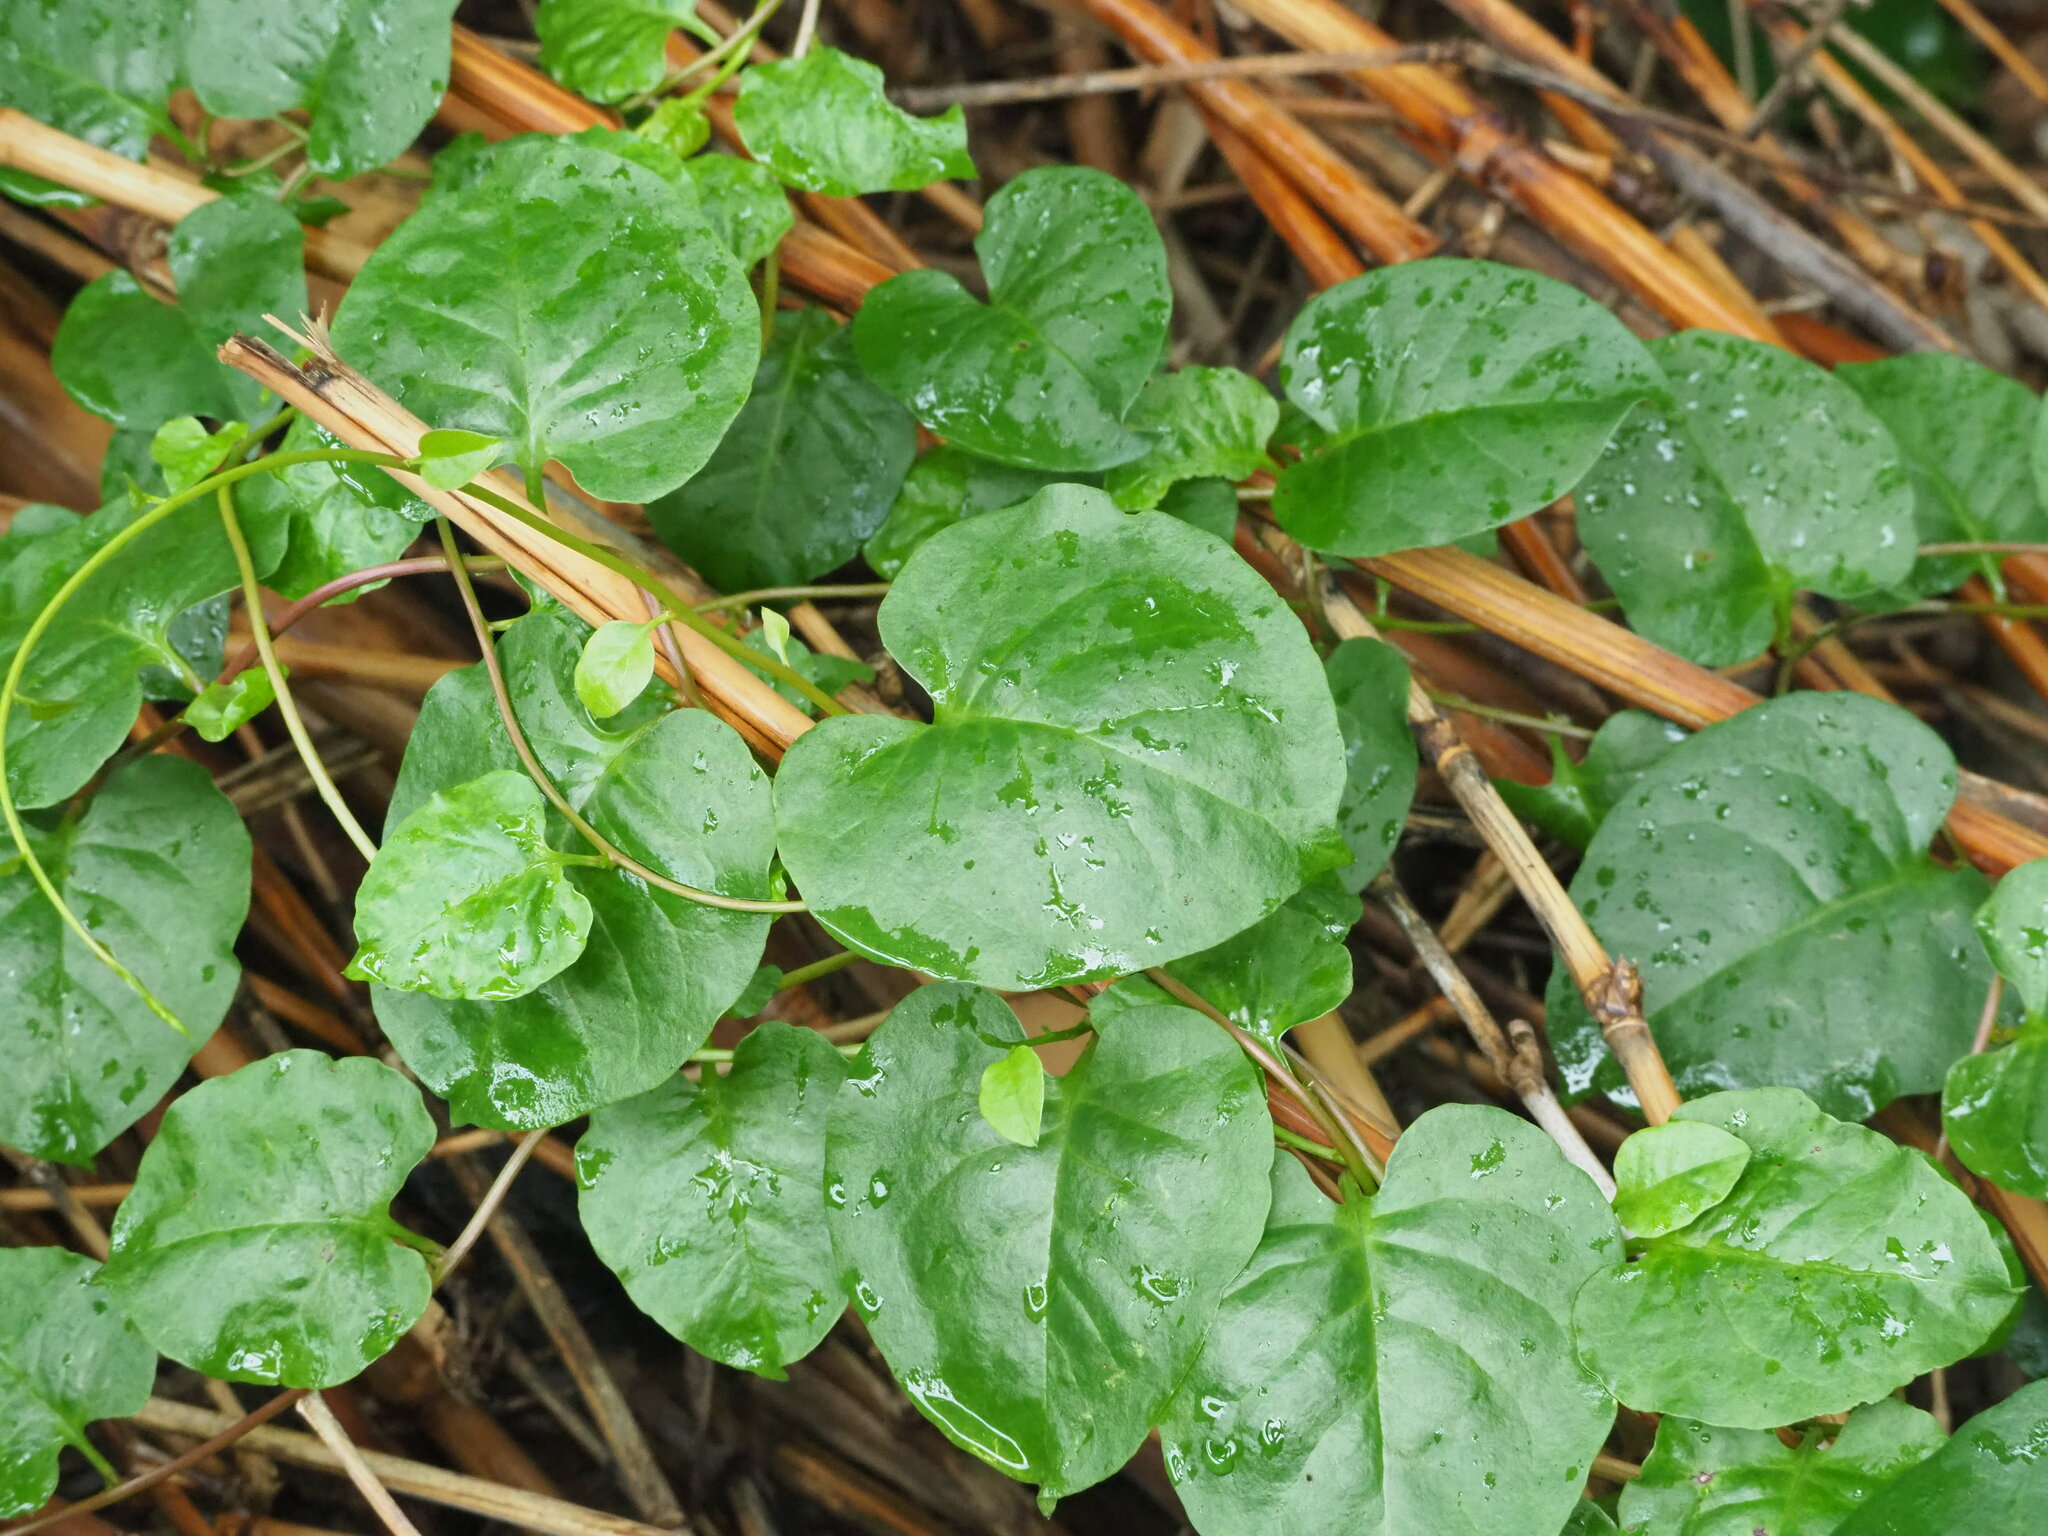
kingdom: Plantae
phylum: Tracheophyta
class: Magnoliopsida
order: Caryophyllales
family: Basellaceae
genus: Anredera
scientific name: Anredera cordifolia
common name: Heartleaf madeiravine
